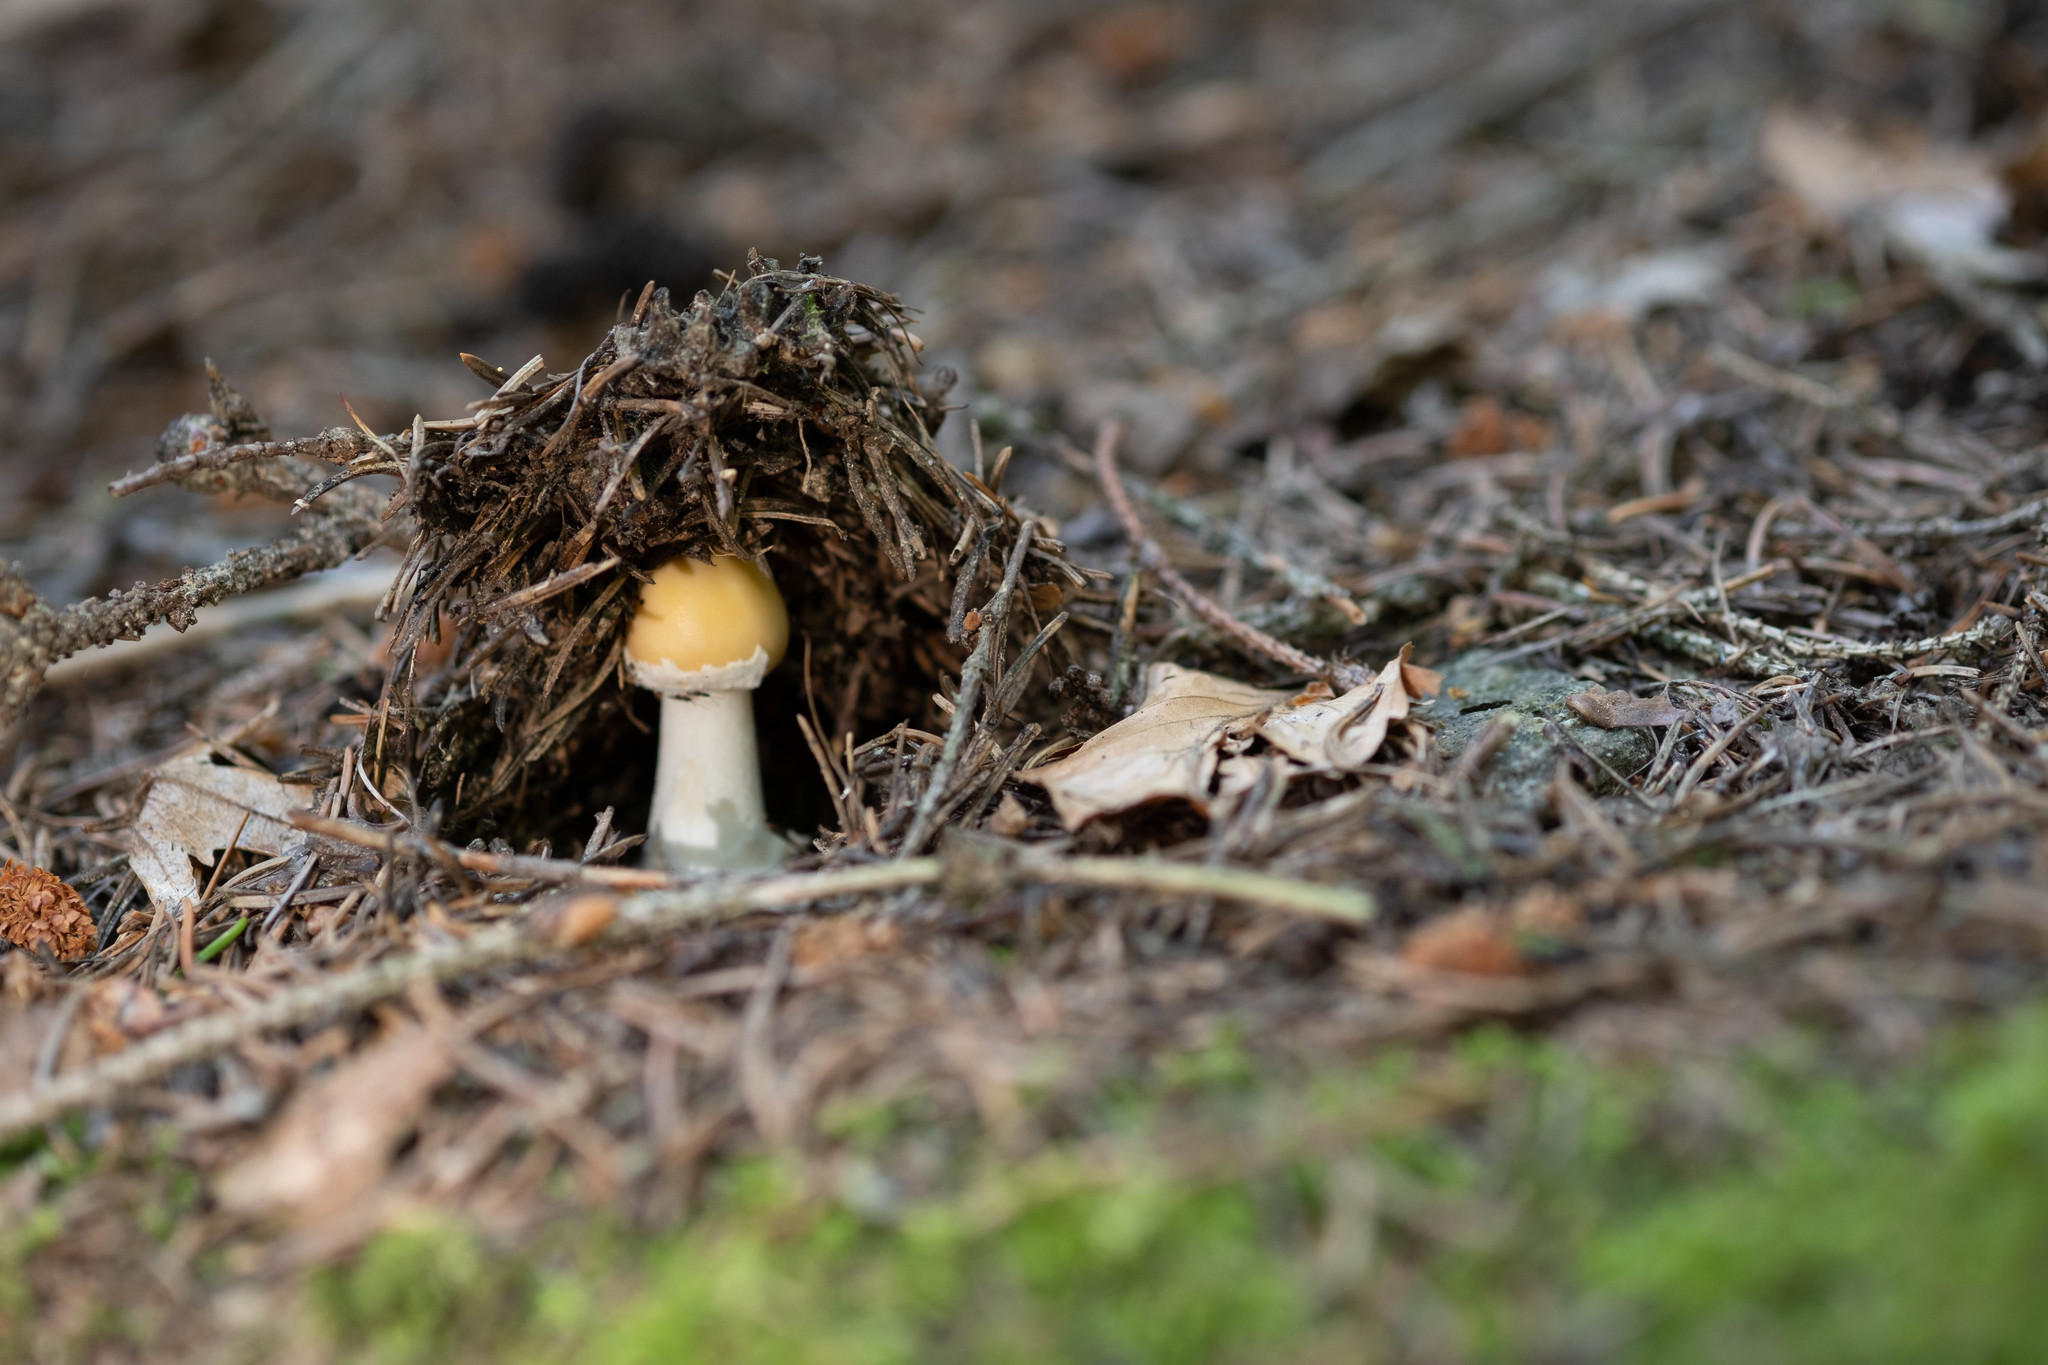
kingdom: Fungi
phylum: Basidiomycota
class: Agaricomycetes
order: Agaricales
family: Amanitaceae
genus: Amanita
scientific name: Amanita gemmata
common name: Jewelled amanita
